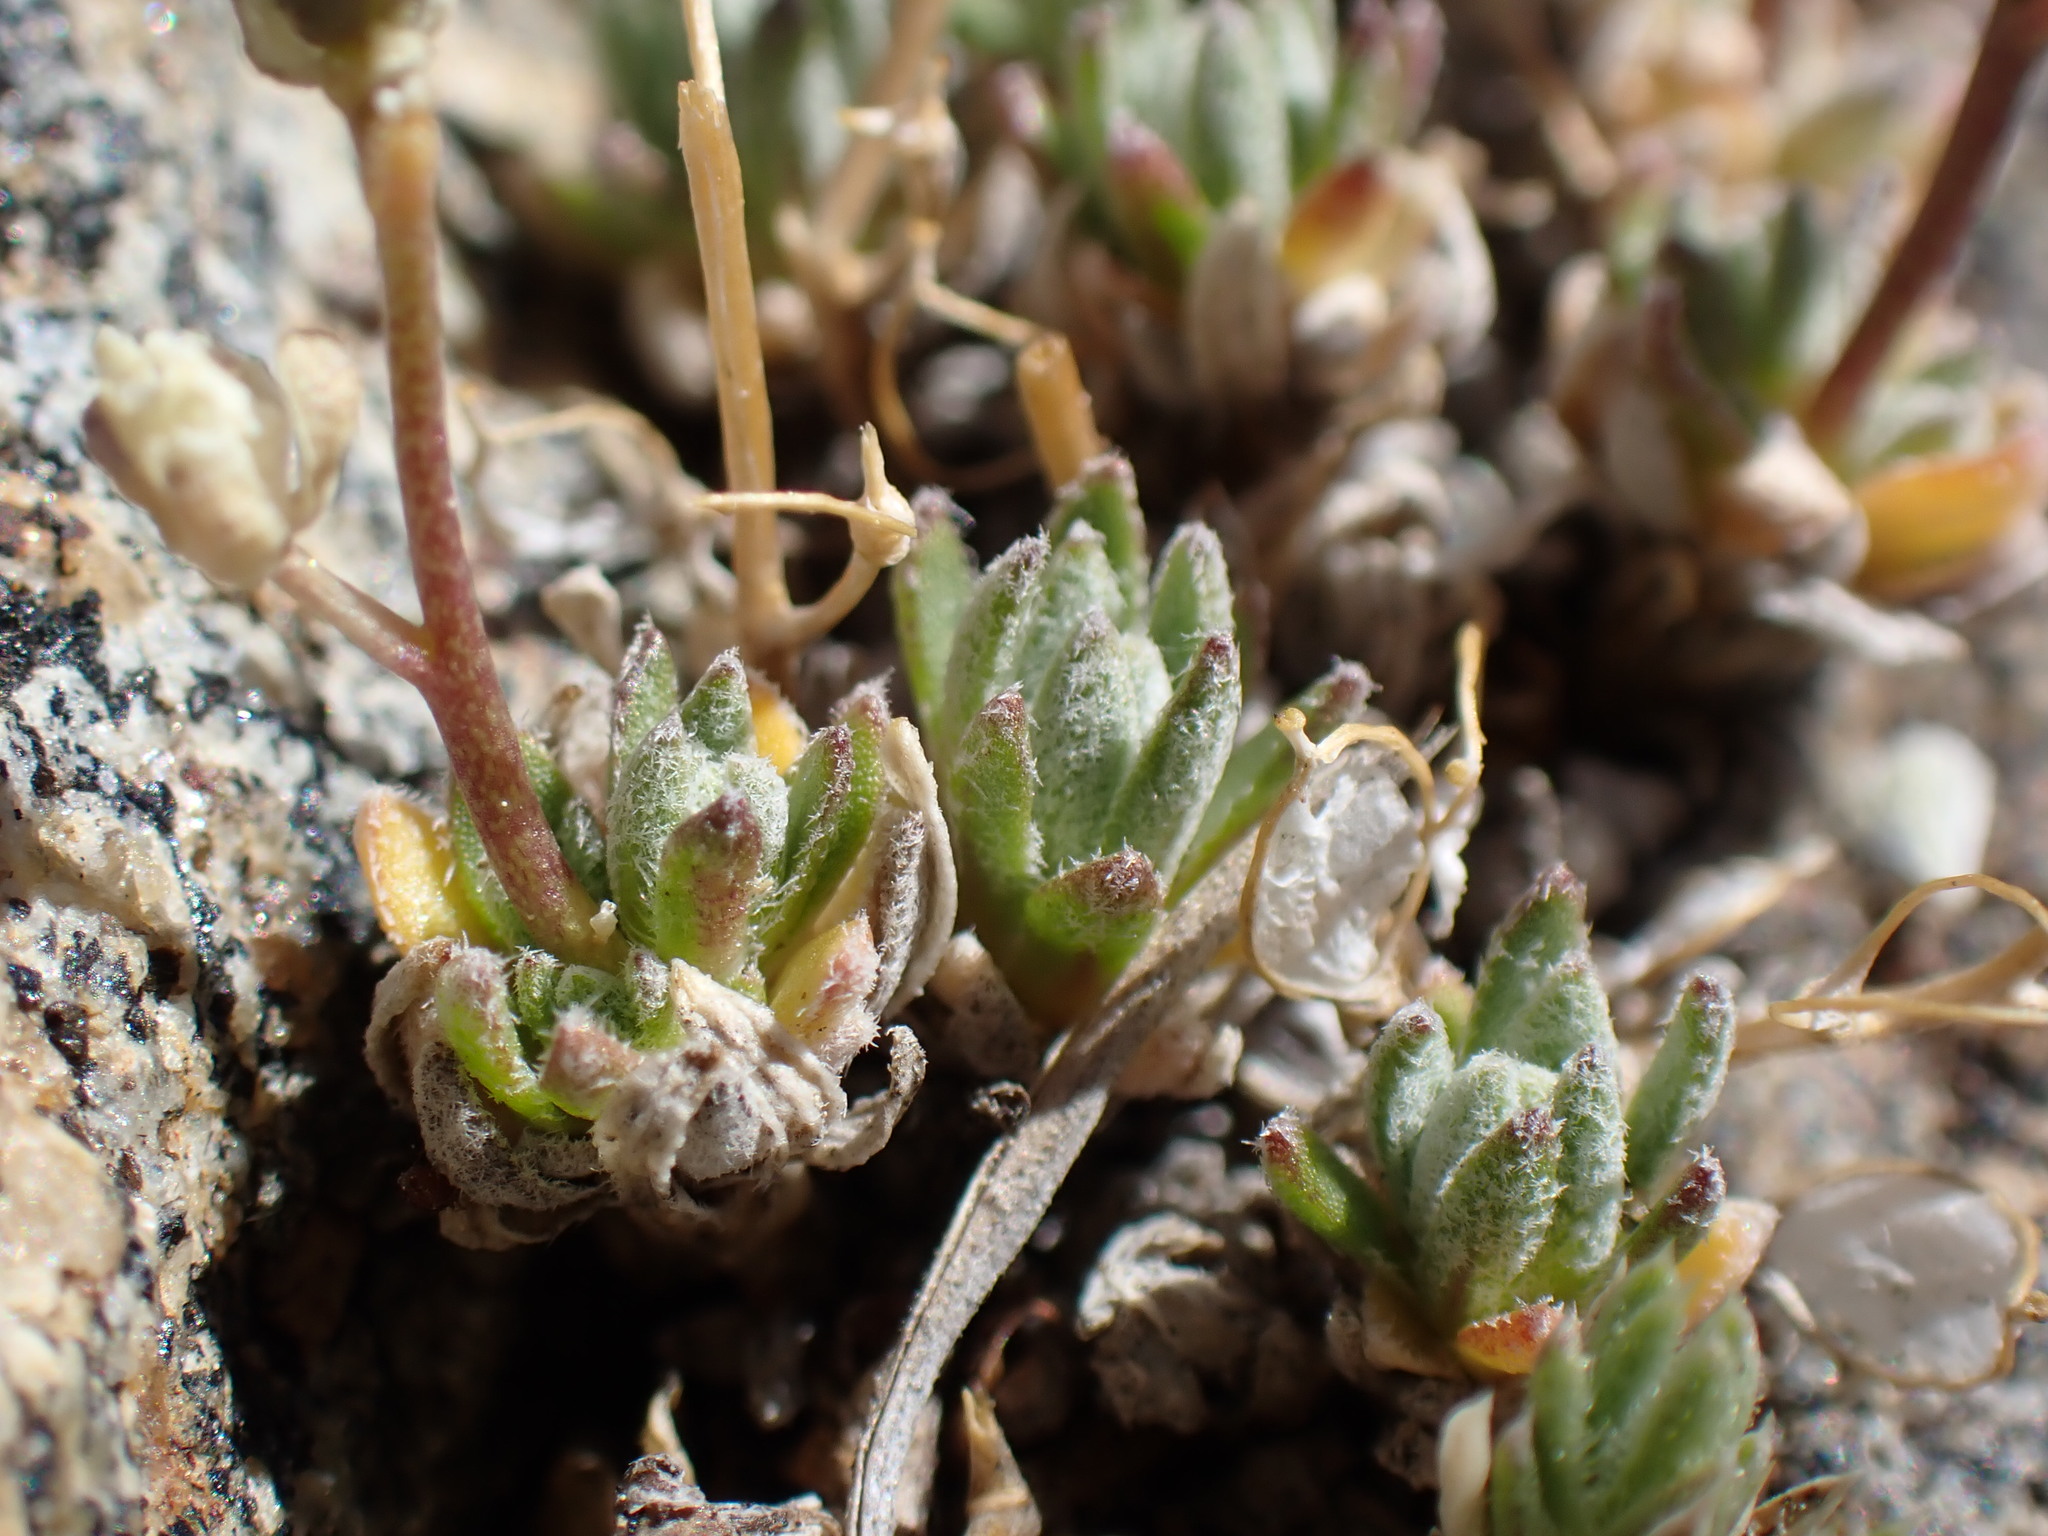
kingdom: Plantae
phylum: Tracheophyta
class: Magnoliopsida
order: Brassicales
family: Brassicaceae
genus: Draba
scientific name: Draba oligosperma
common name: Few-seed draba
